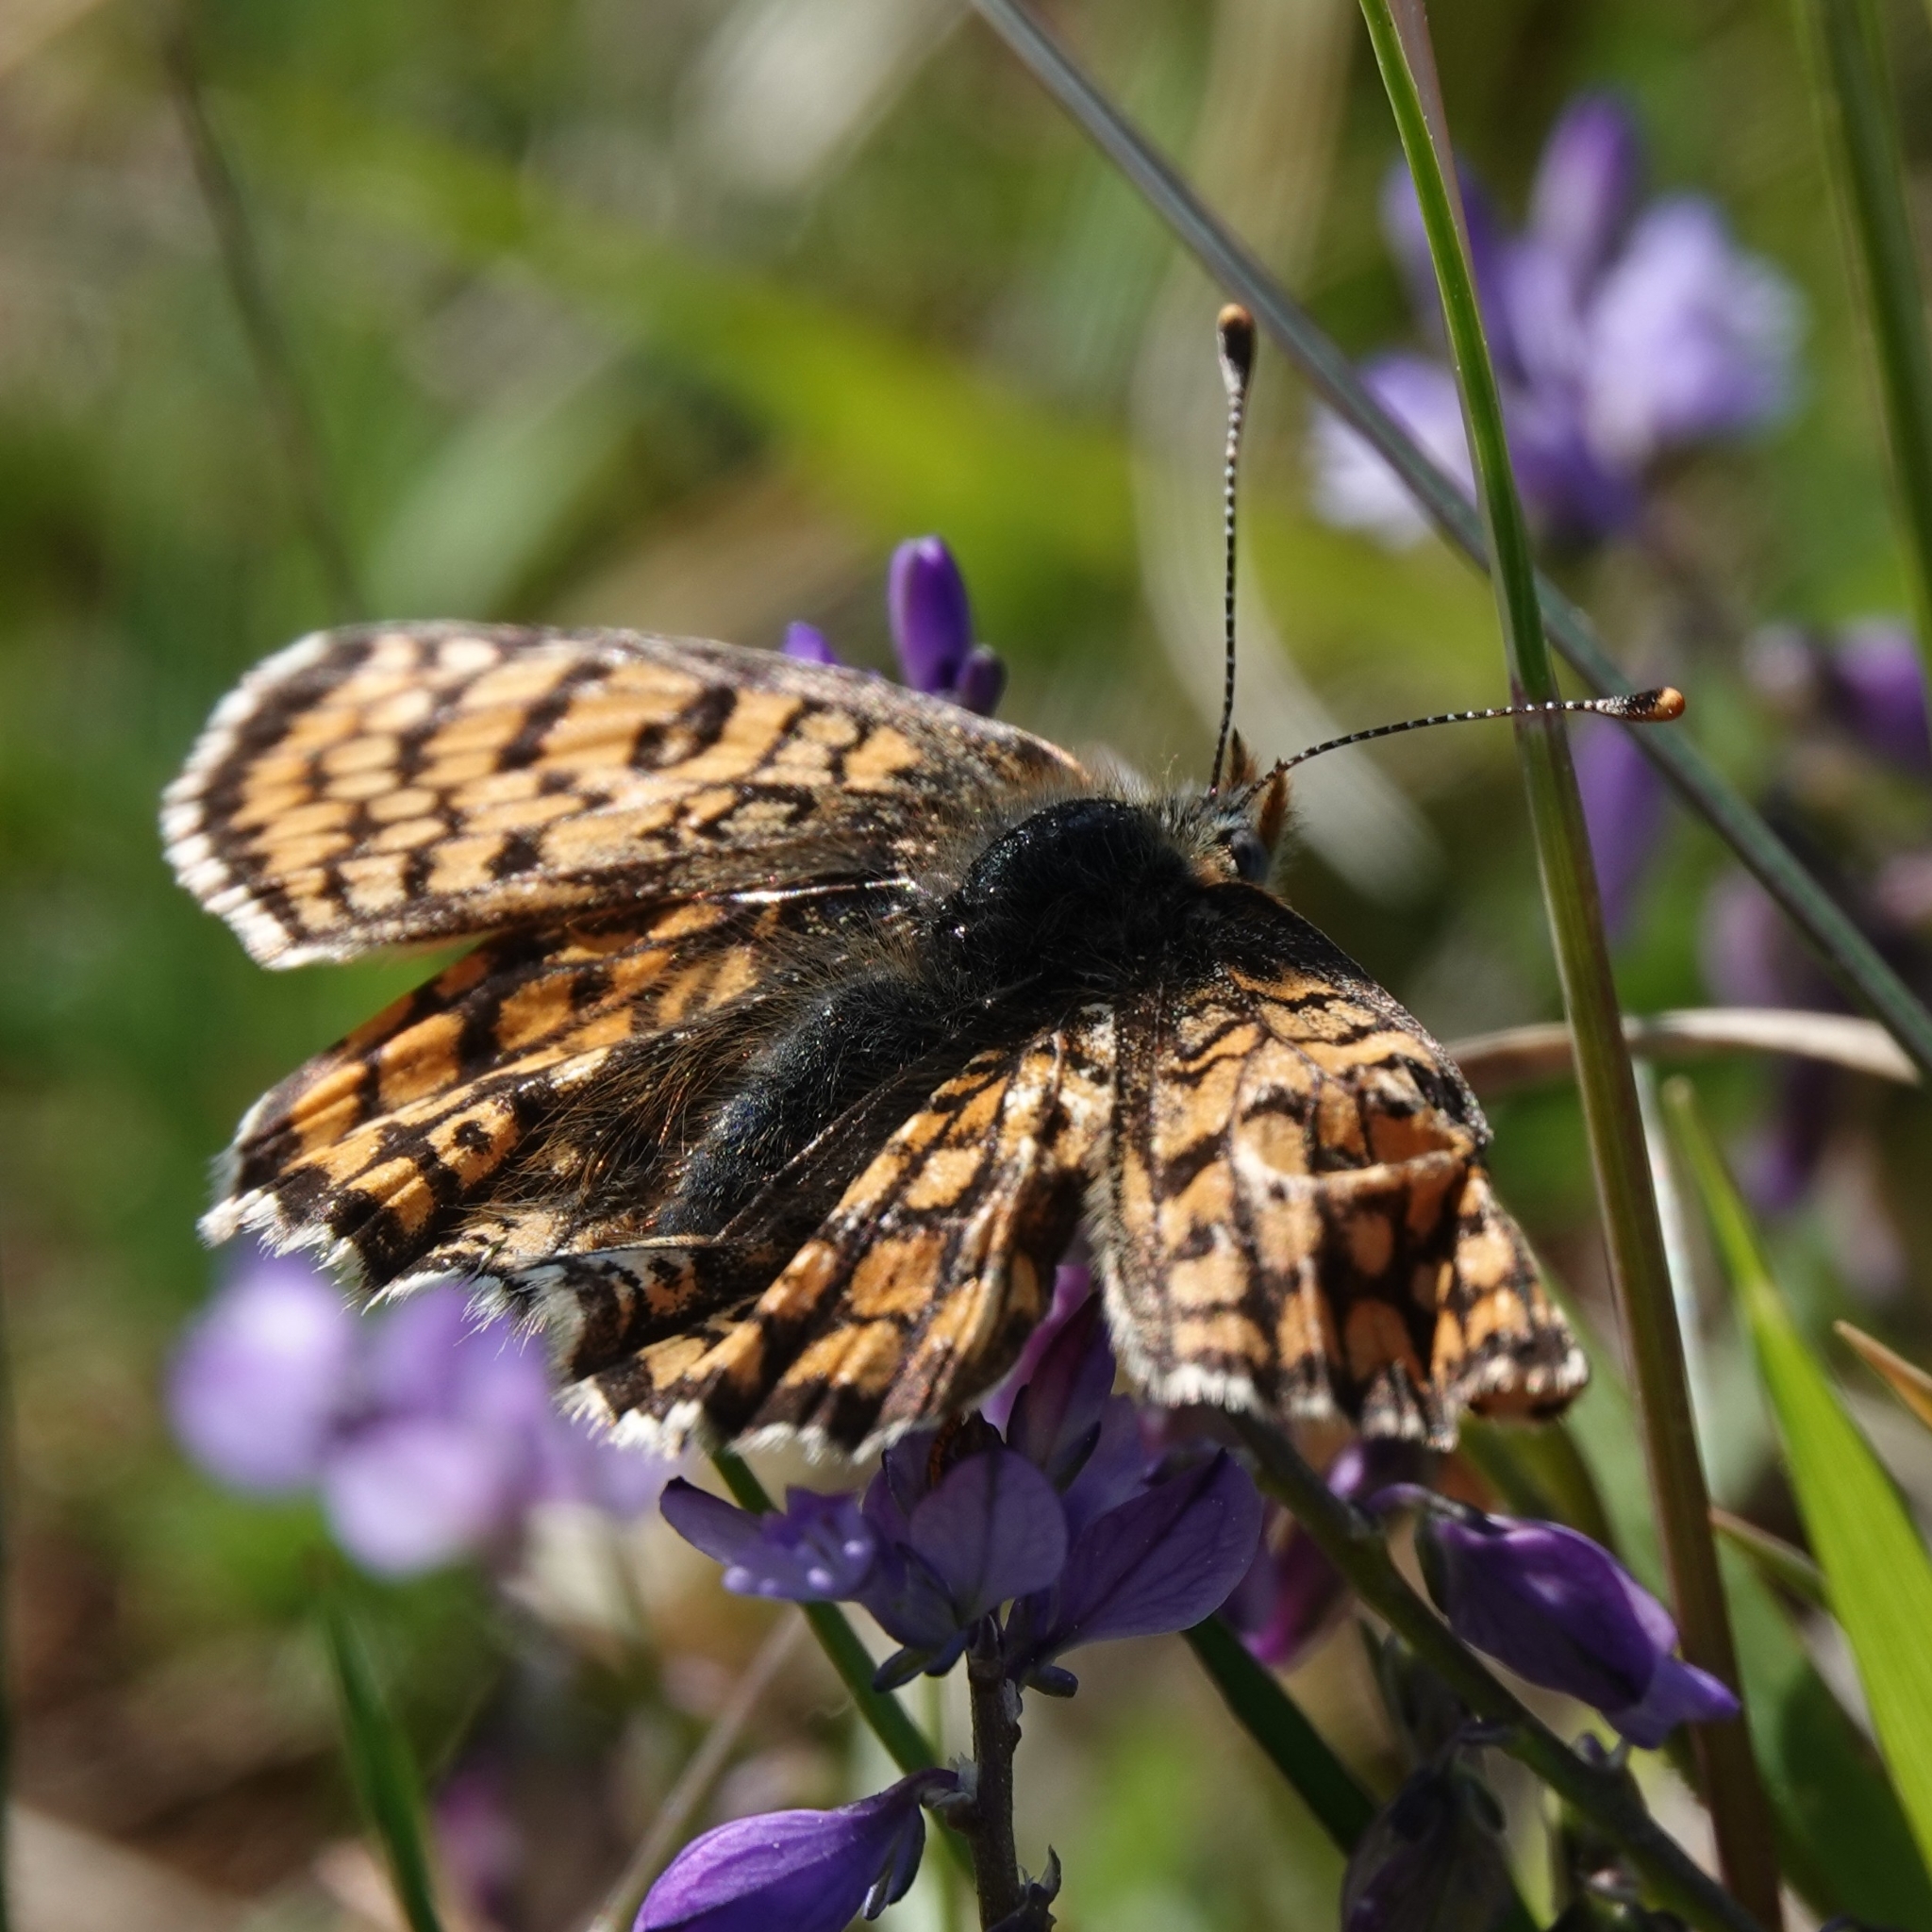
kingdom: Animalia
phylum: Arthropoda
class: Insecta
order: Lepidoptera
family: Nymphalidae
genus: Melitaea
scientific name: Melitaea cinxia
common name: Glanville fritillary
